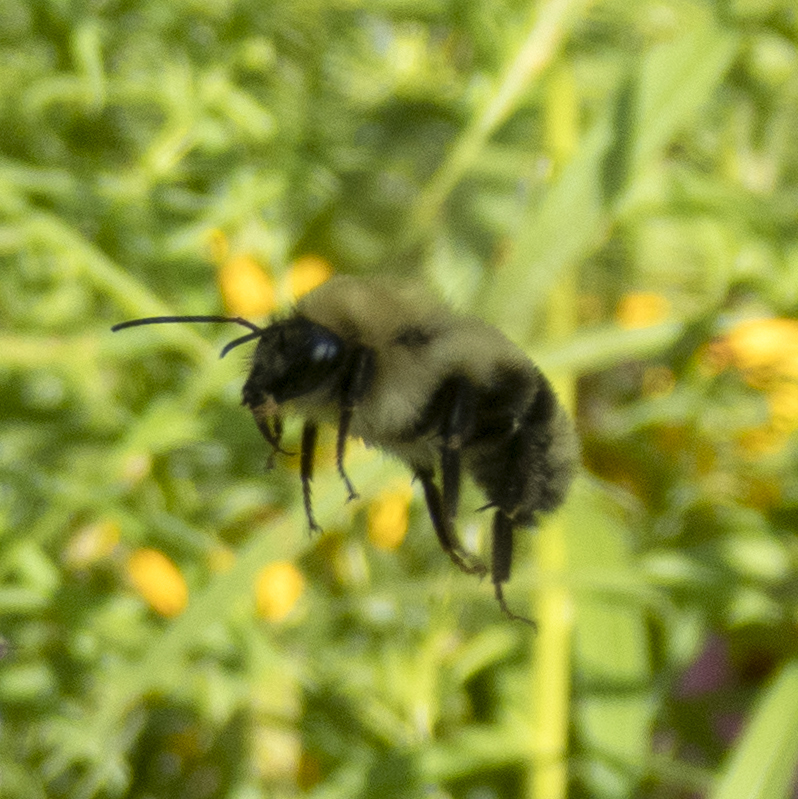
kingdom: Animalia
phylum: Arthropoda
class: Insecta
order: Hymenoptera
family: Apidae
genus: Bombus
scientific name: Bombus bimaculatus
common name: Two-spotted bumble bee
